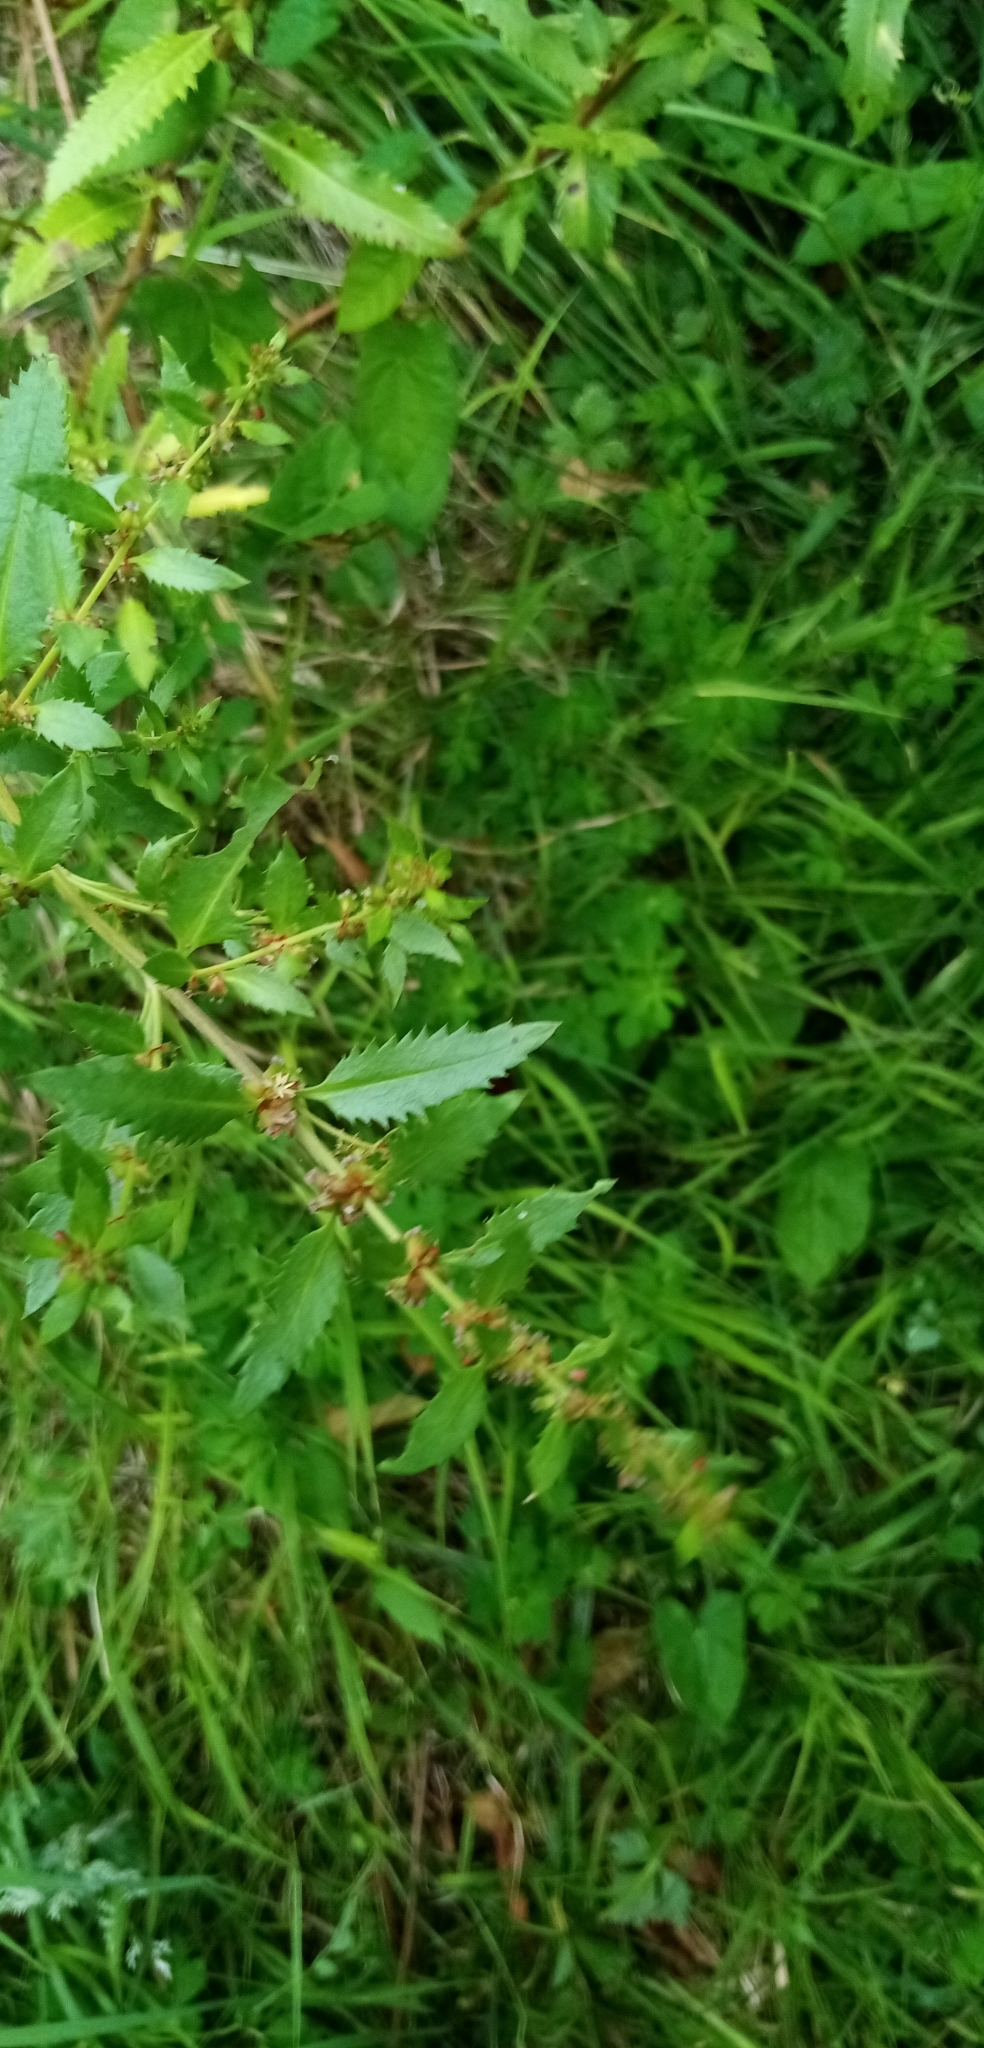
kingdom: Plantae
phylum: Tracheophyta
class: Magnoliopsida
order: Saxifragales
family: Haloragaceae
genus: Haloragis
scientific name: Haloragis erecta
